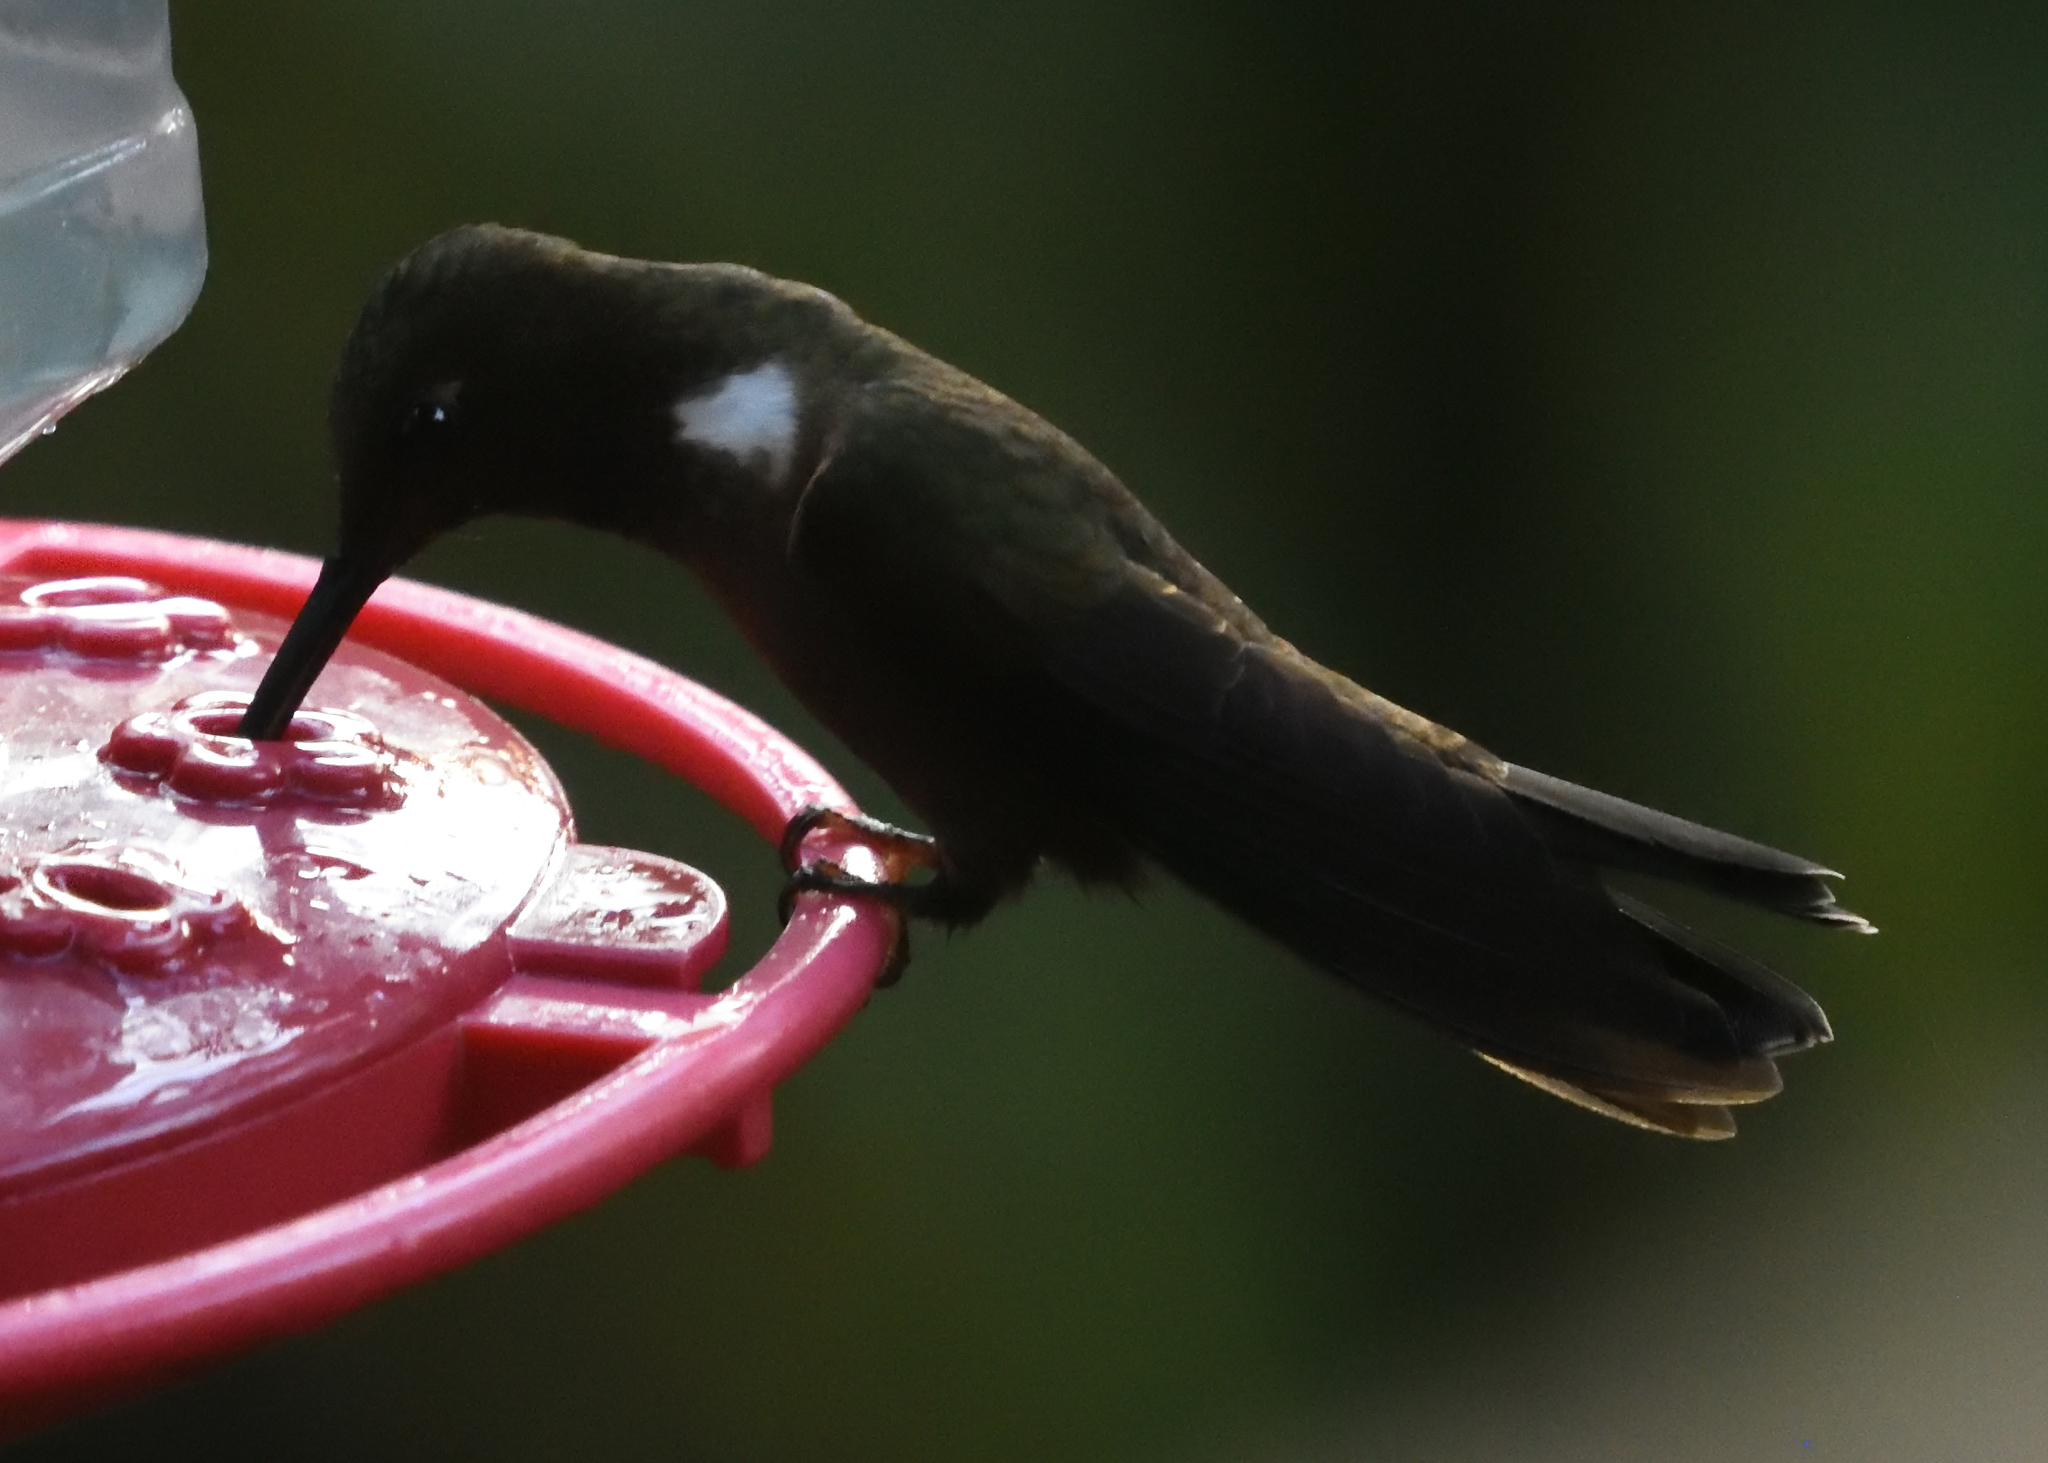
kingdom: Animalia
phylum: Chordata
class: Aves
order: Apodiformes
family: Trochilidae
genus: Coeligena
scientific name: Coeligena wilsoni
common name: Brown inca
